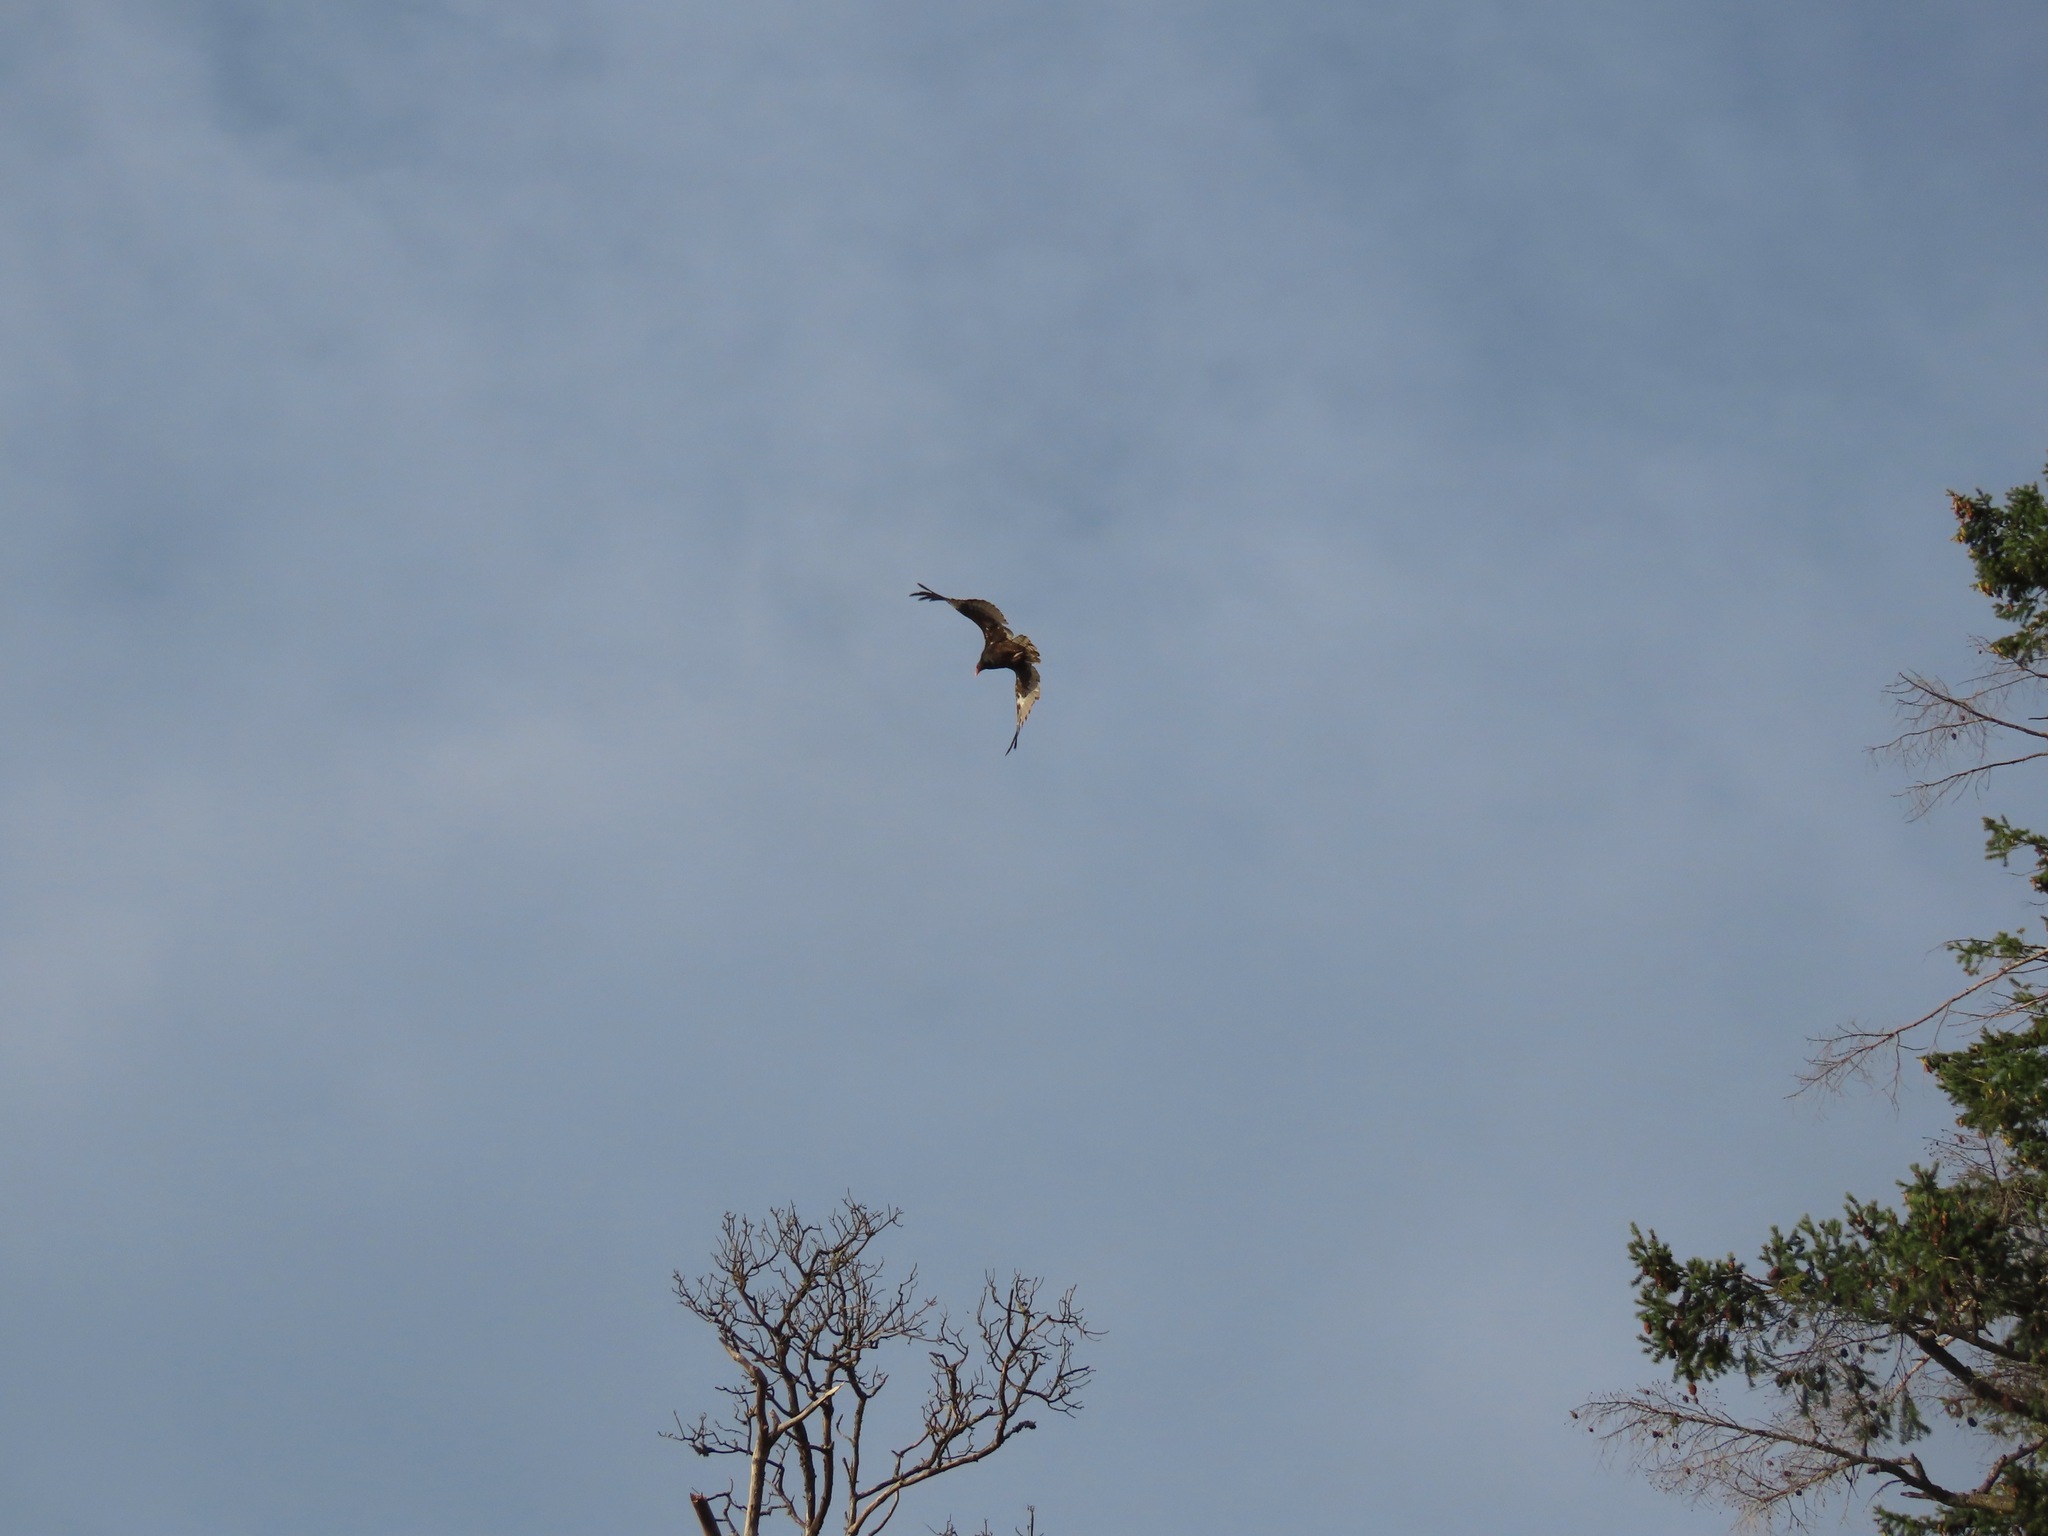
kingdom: Animalia
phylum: Chordata
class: Aves
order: Accipitriformes
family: Cathartidae
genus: Cathartes
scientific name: Cathartes aura
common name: Turkey vulture
